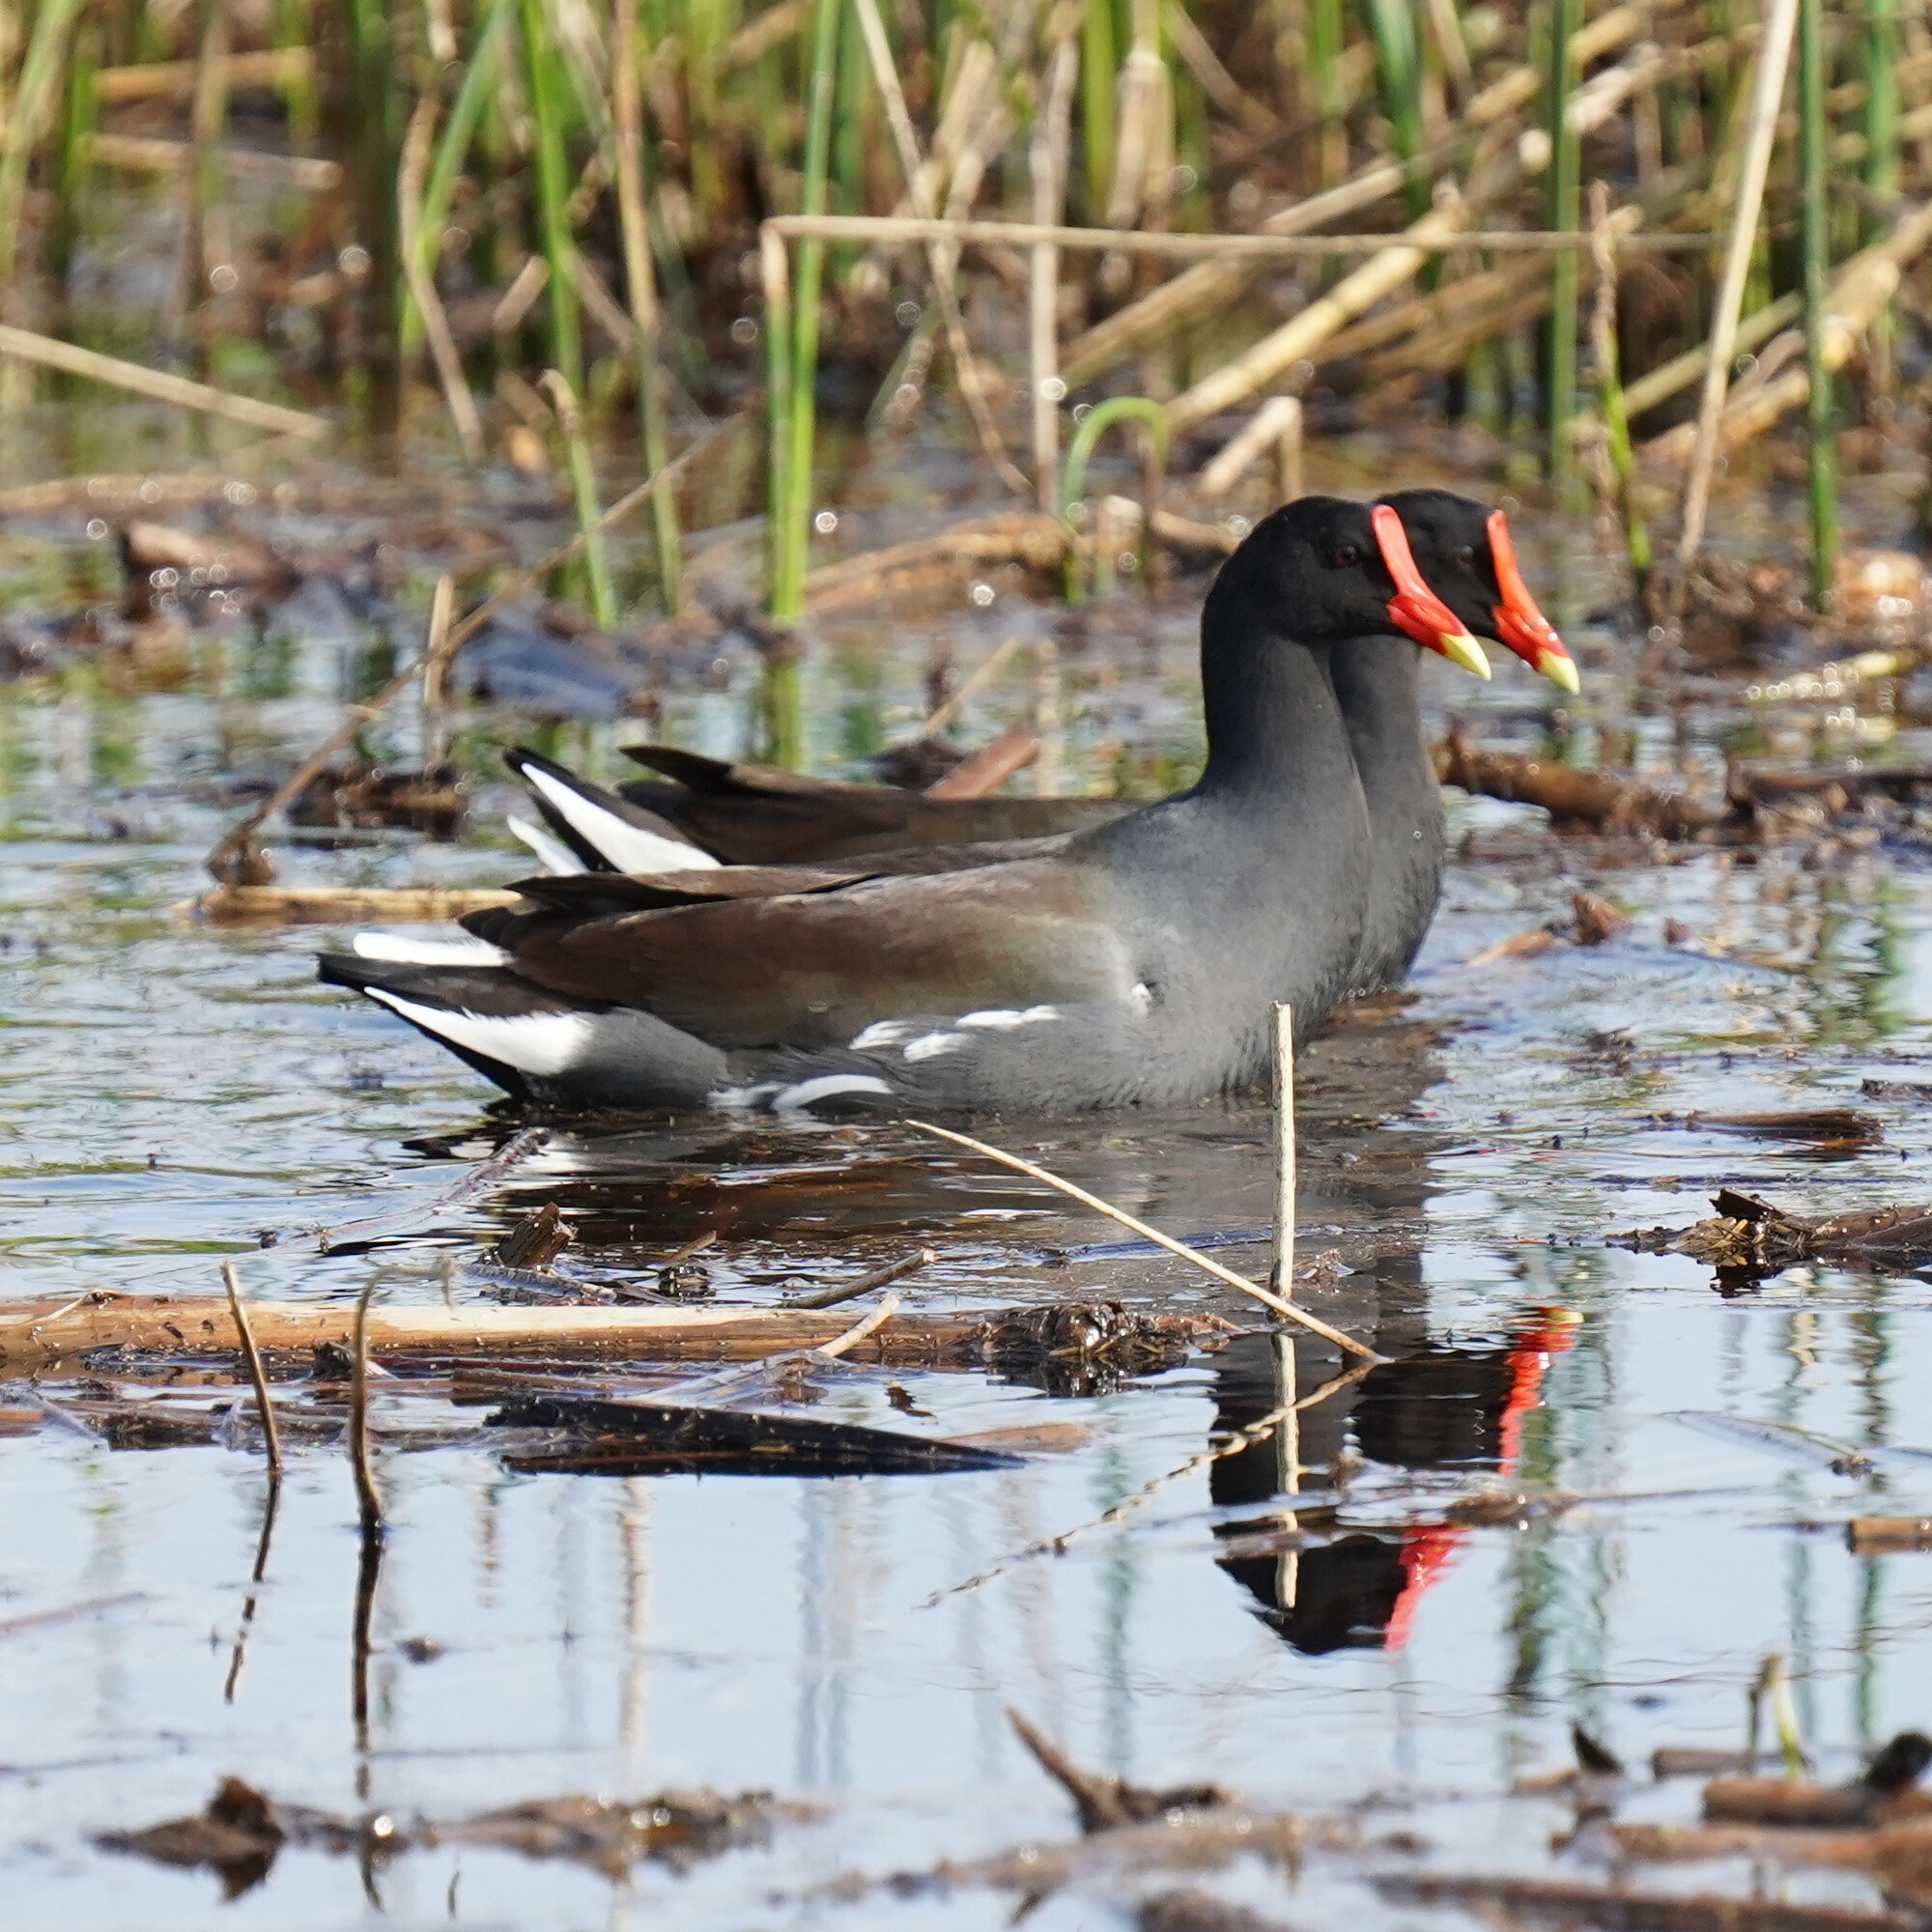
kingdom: Animalia
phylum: Chordata
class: Aves
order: Gruiformes
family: Rallidae
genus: Gallinula
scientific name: Gallinula chloropus
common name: Common moorhen
